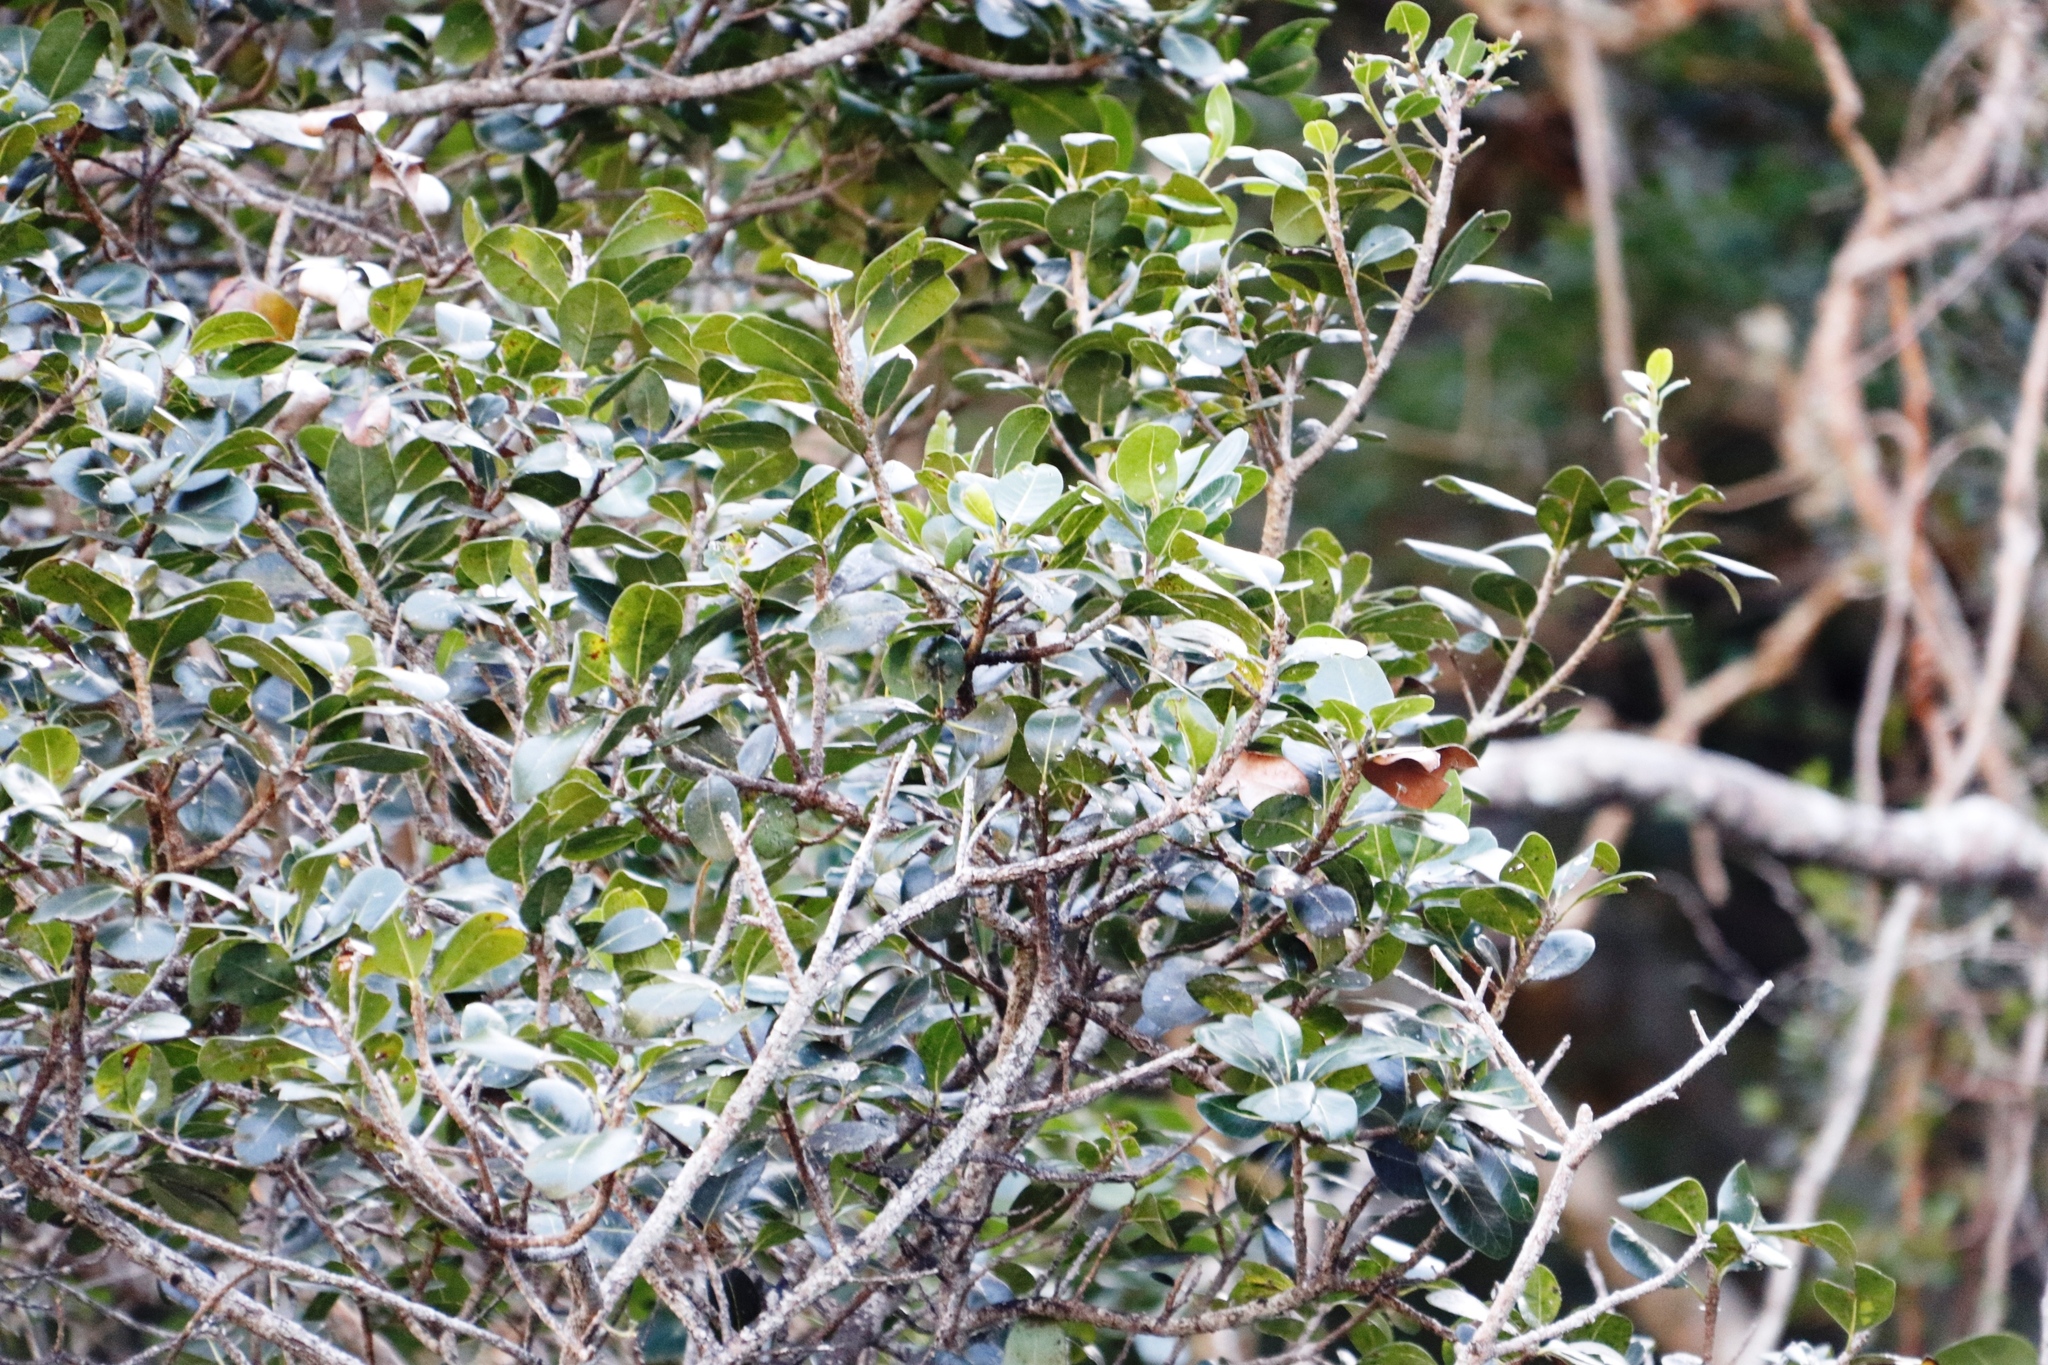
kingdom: Plantae
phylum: Tracheophyta
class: Magnoliopsida
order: Ericales
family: Sapotaceae
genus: Sideroxylon
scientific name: Sideroxylon inerme
